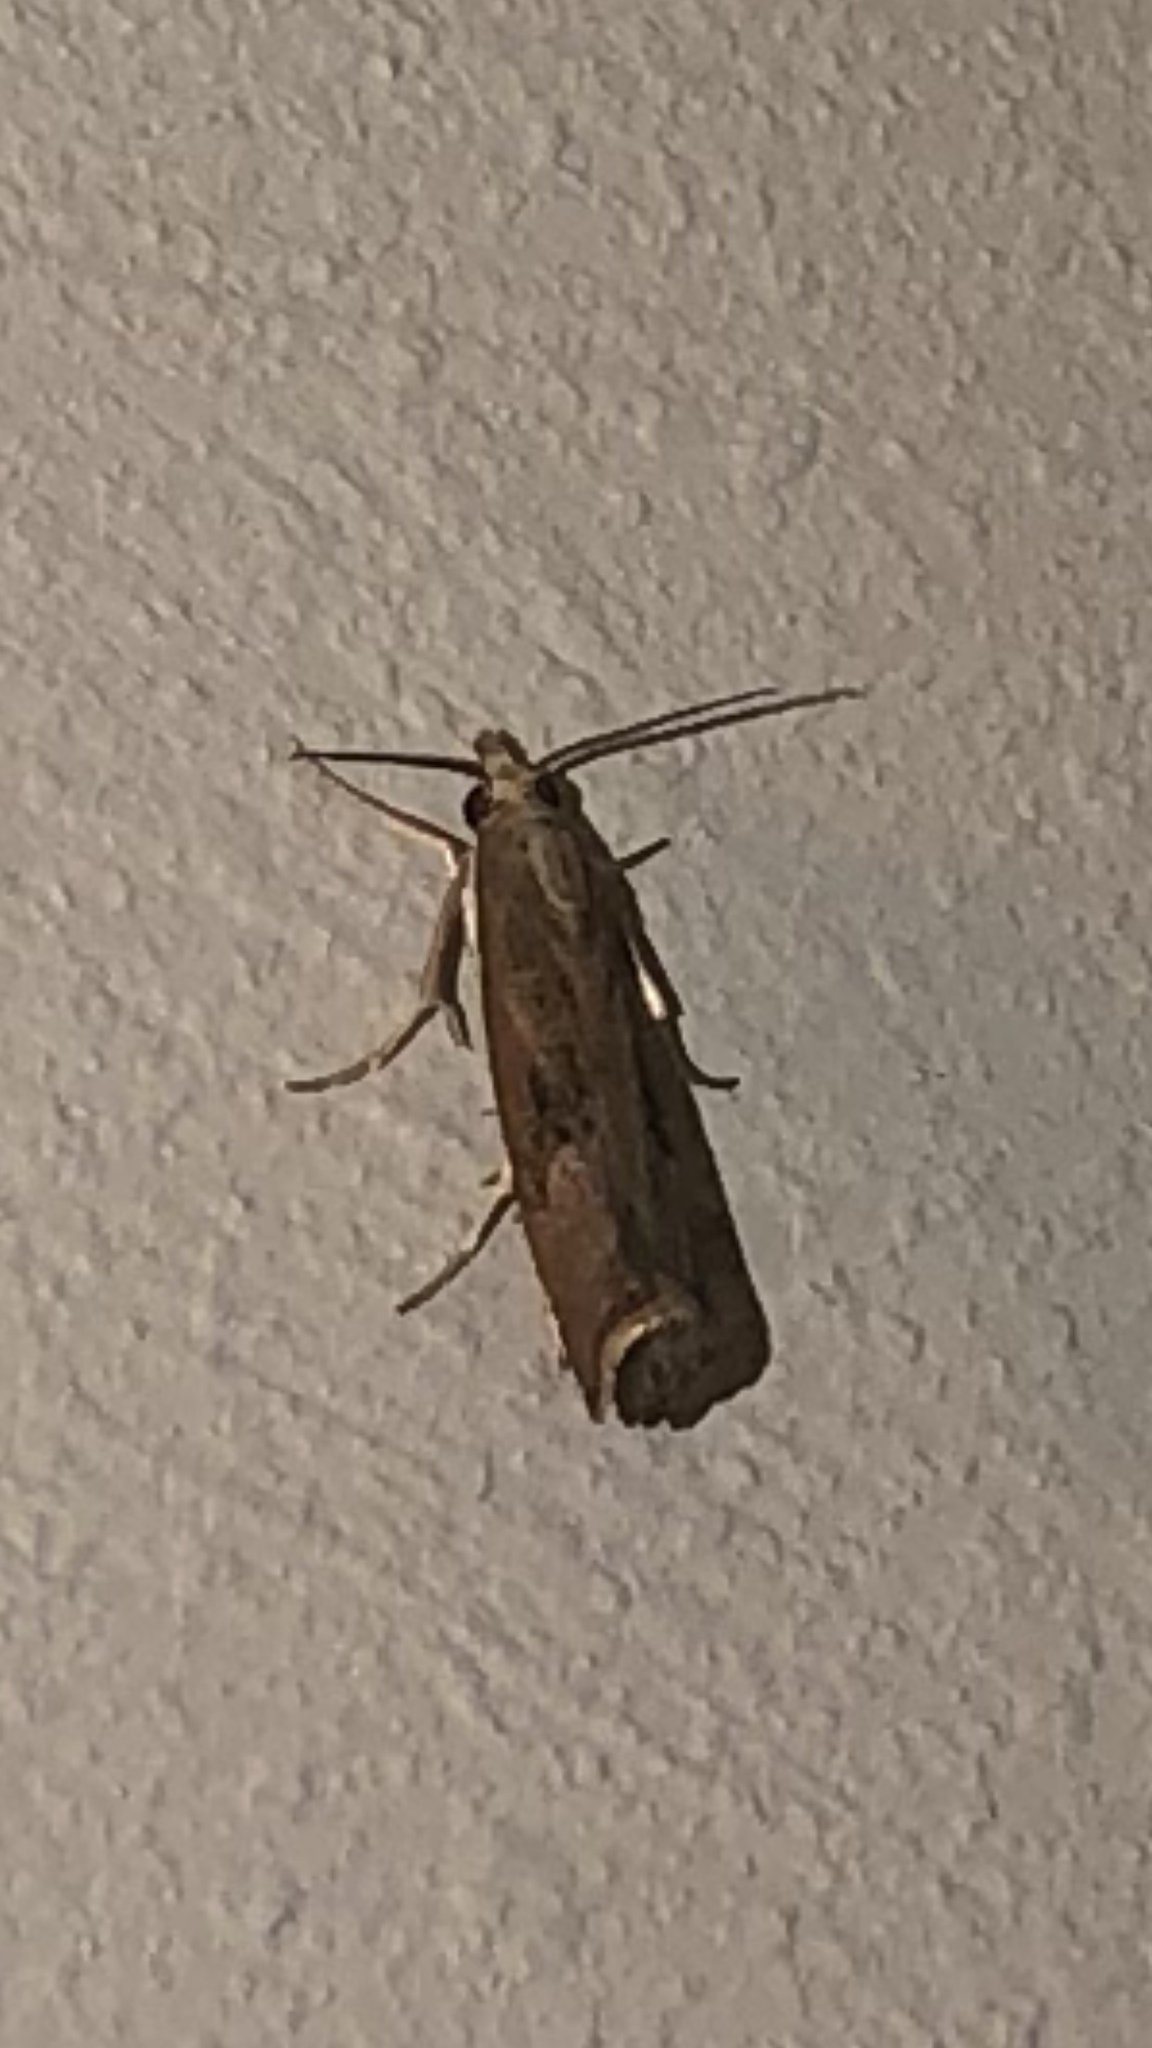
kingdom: Animalia
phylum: Arthropoda
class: Insecta
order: Lepidoptera
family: Crambidae
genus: Parapediasia
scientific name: Parapediasia teterellus
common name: Bluegrass webworm moth
